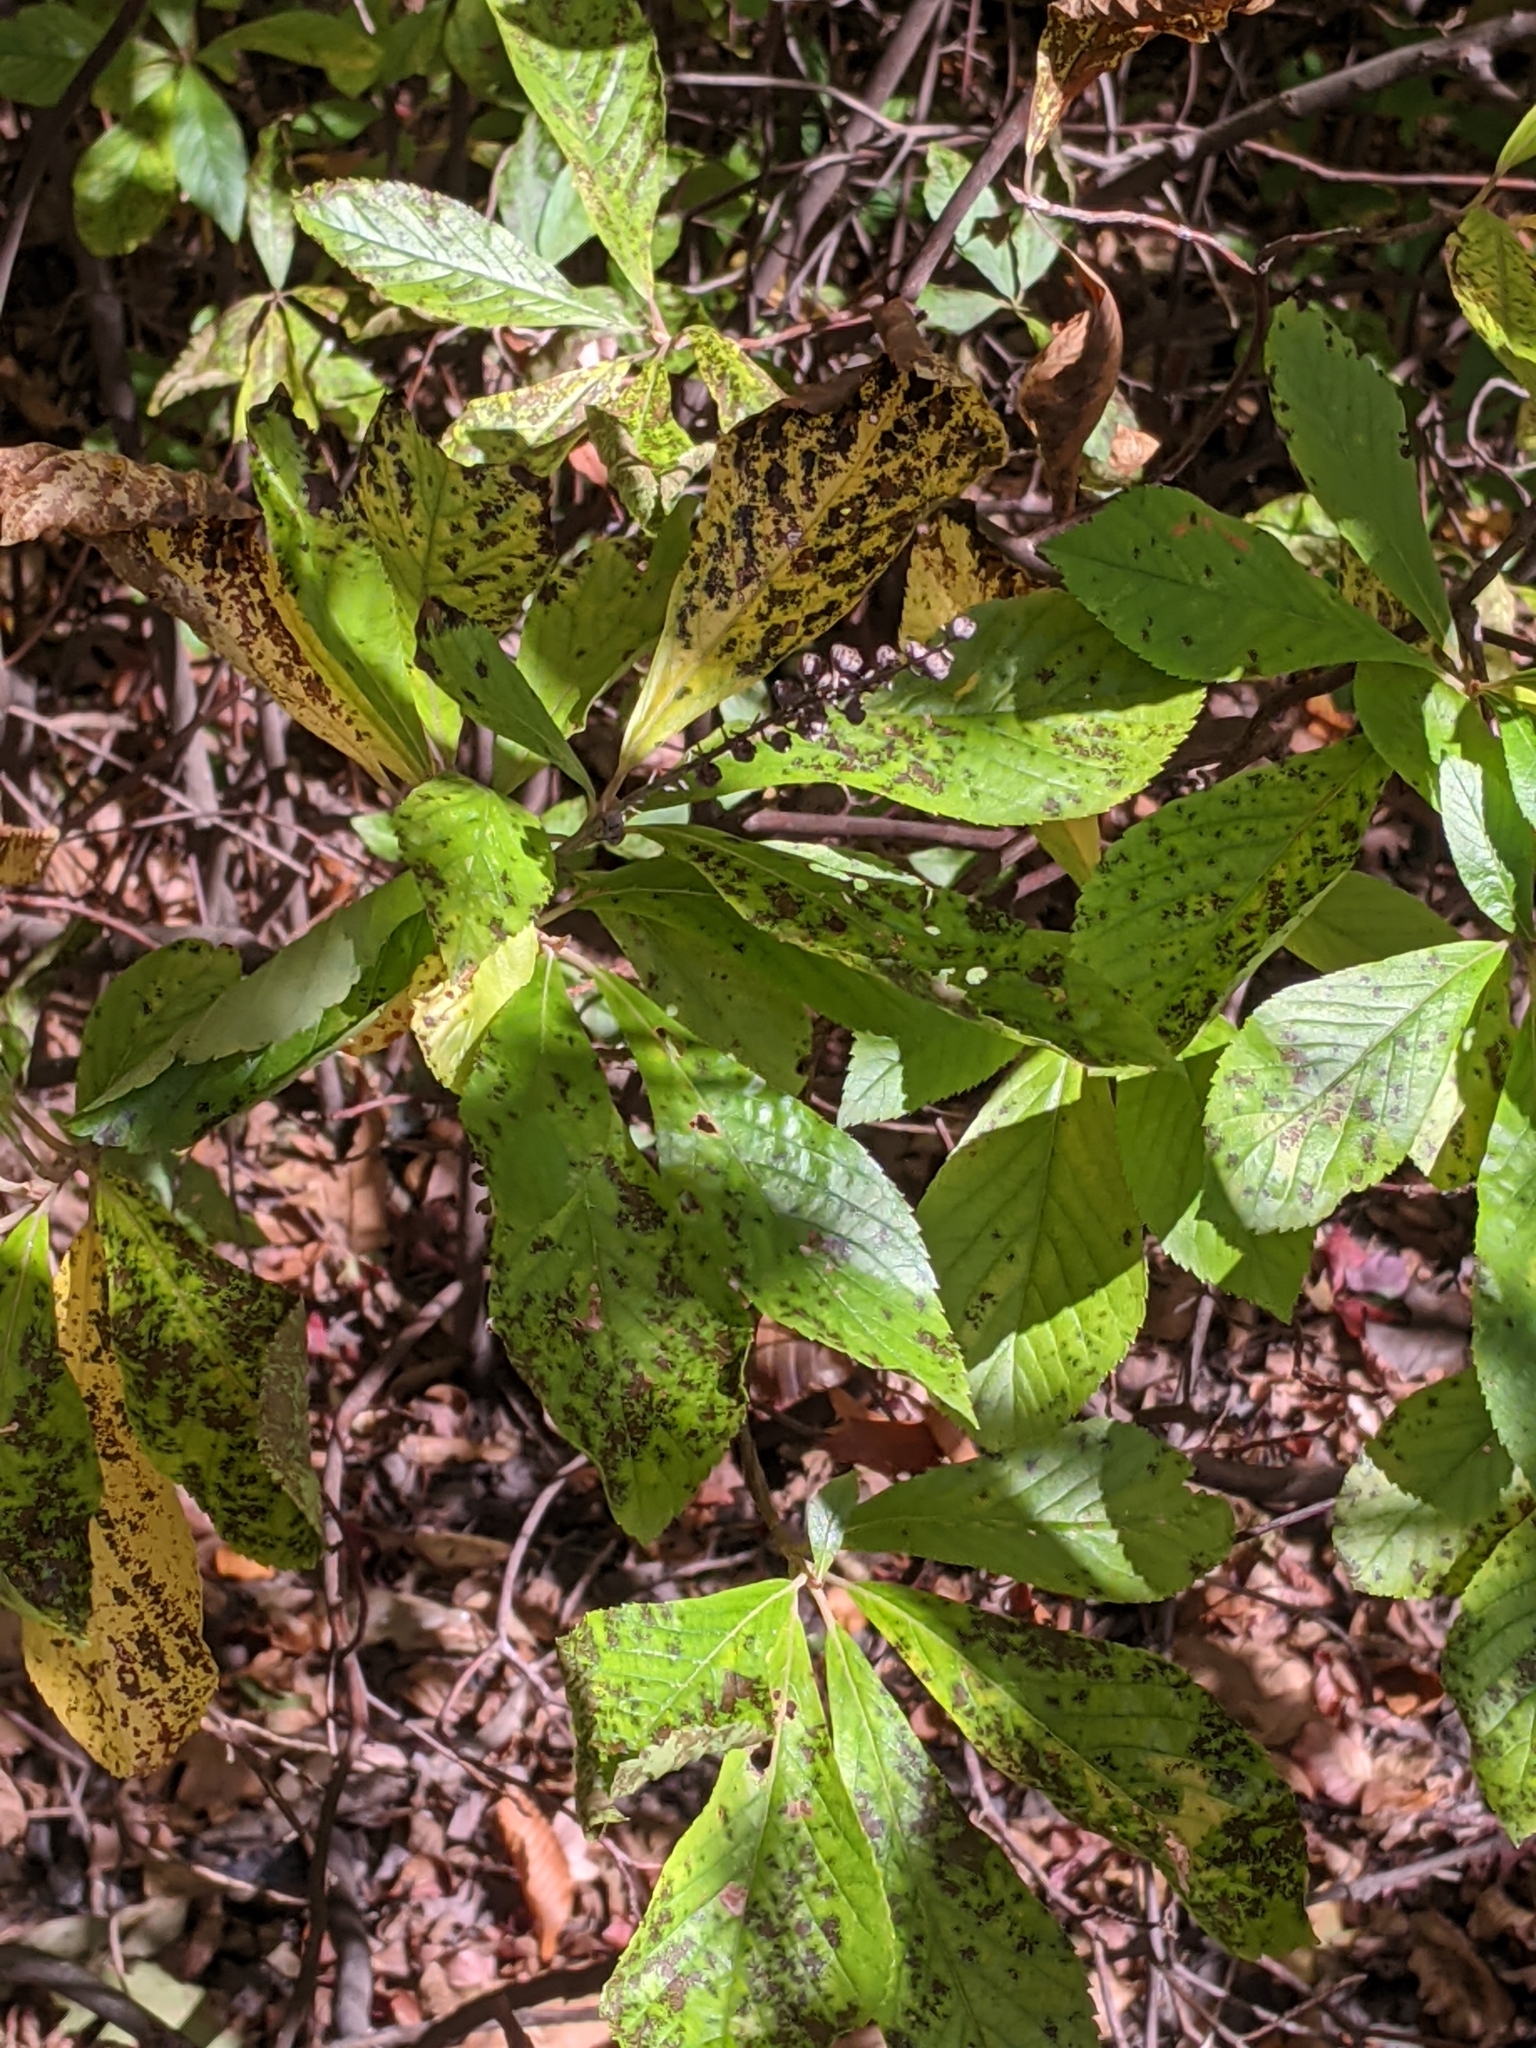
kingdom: Plantae
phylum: Tracheophyta
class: Magnoliopsida
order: Ericales
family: Clethraceae
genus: Clethra
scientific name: Clethra alnifolia
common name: Sweet pepperbush
